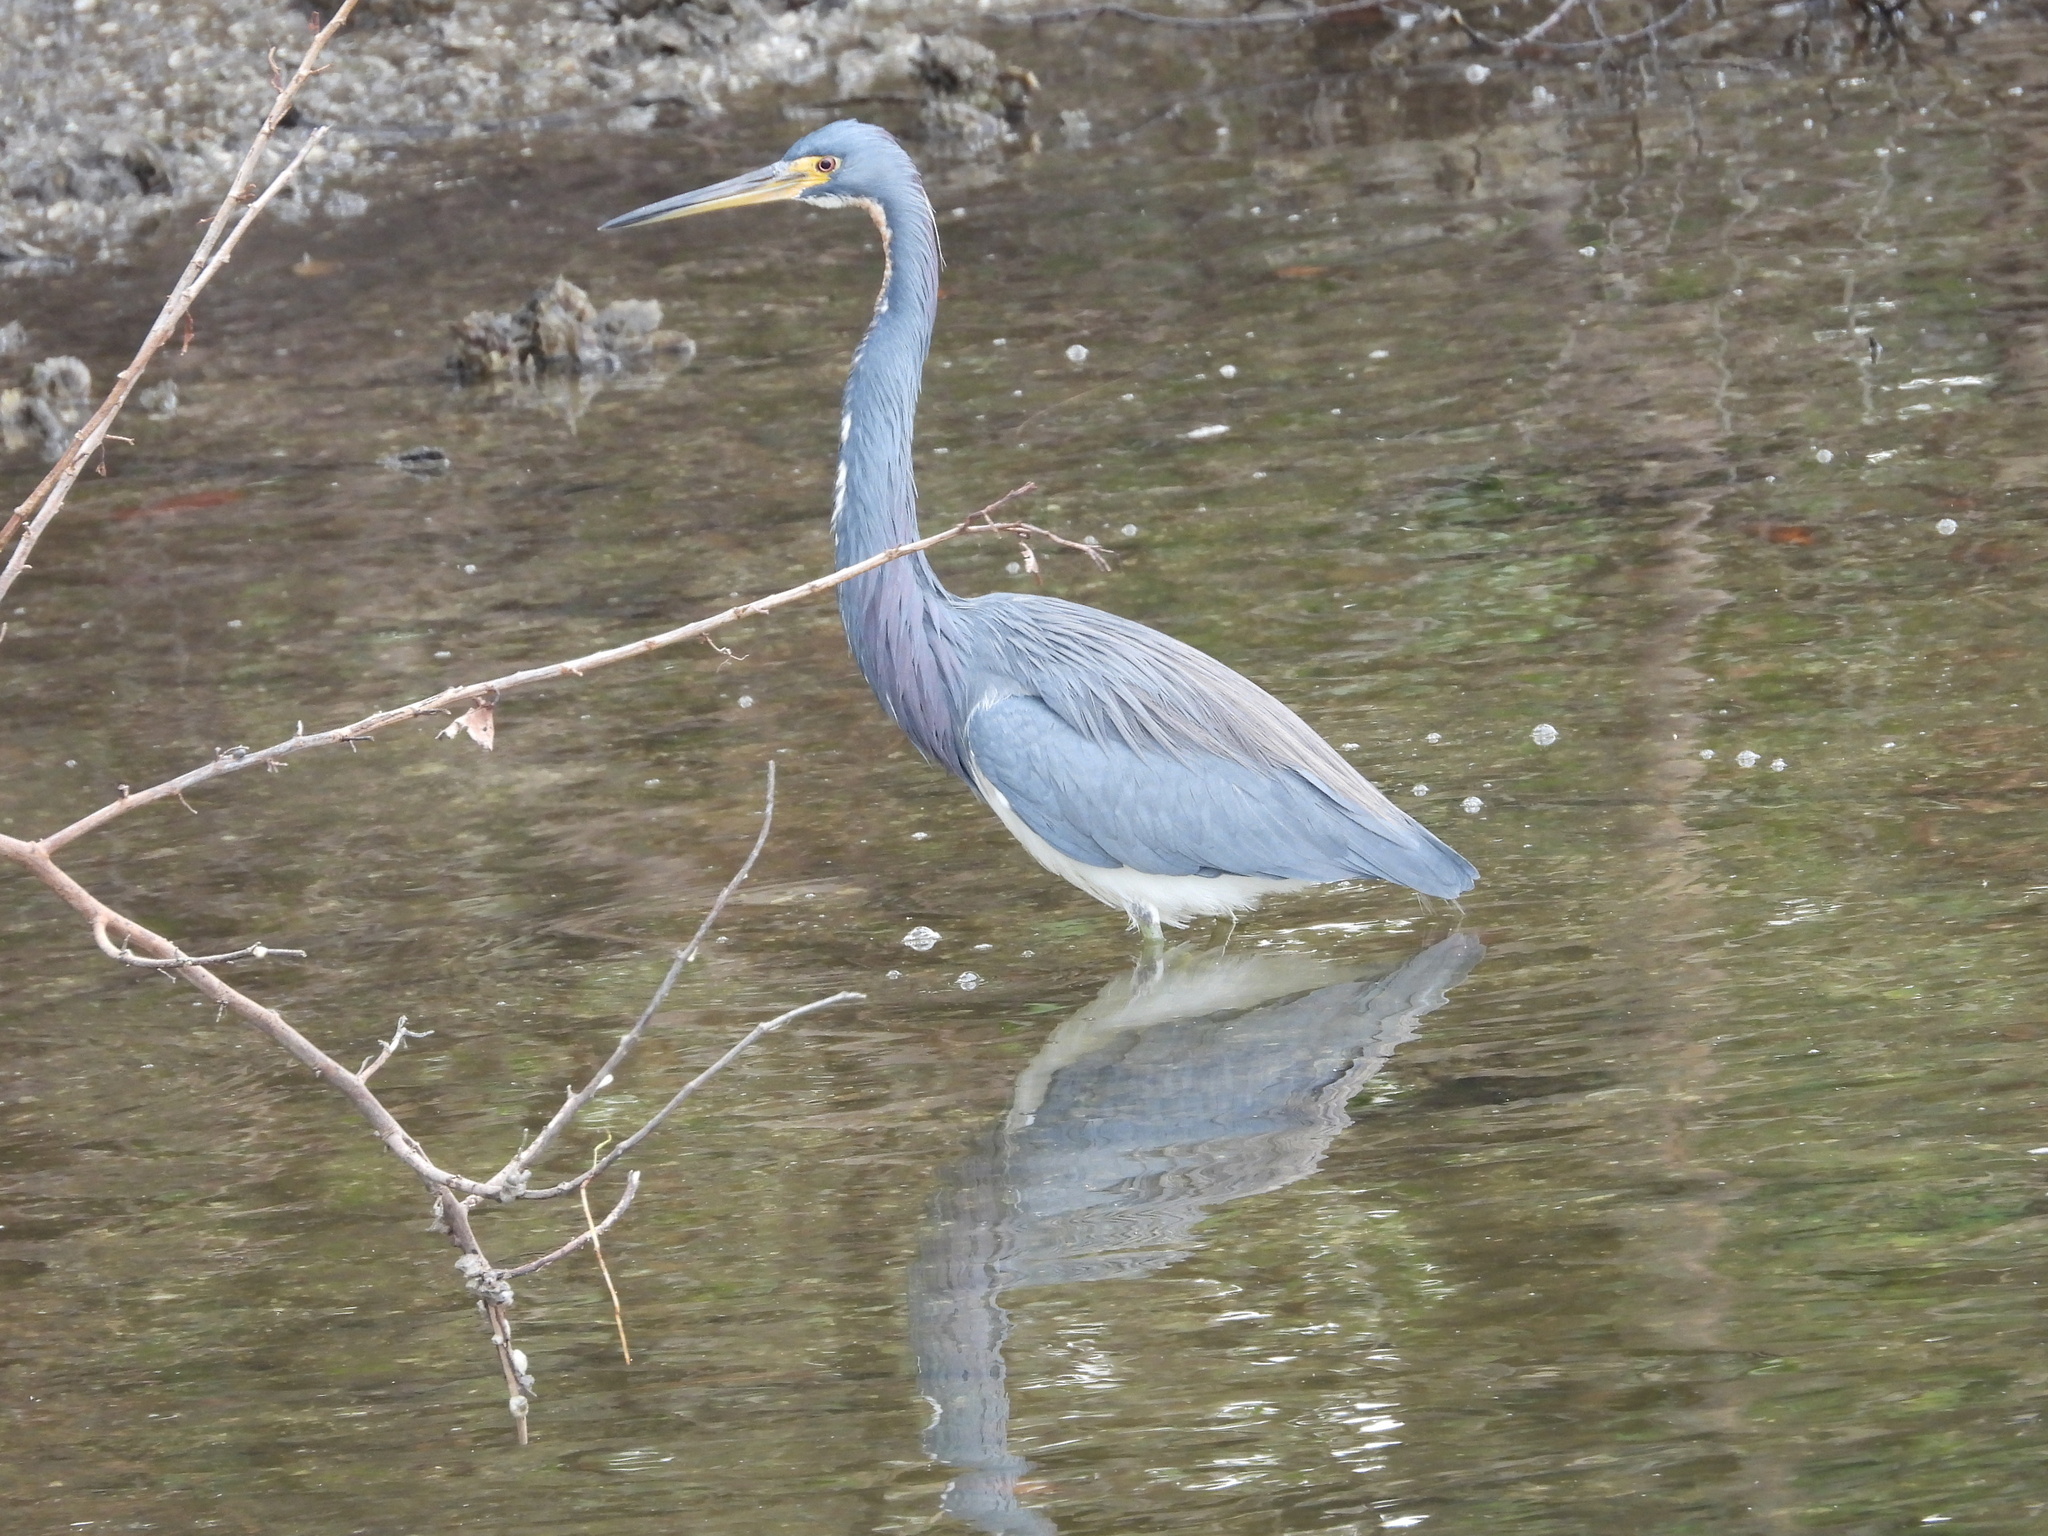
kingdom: Animalia
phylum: Chordata
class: Aves
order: Pelecaniformes
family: Ardeidae
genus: Egretta
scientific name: Egretta tricolor
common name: Tricolored heron
